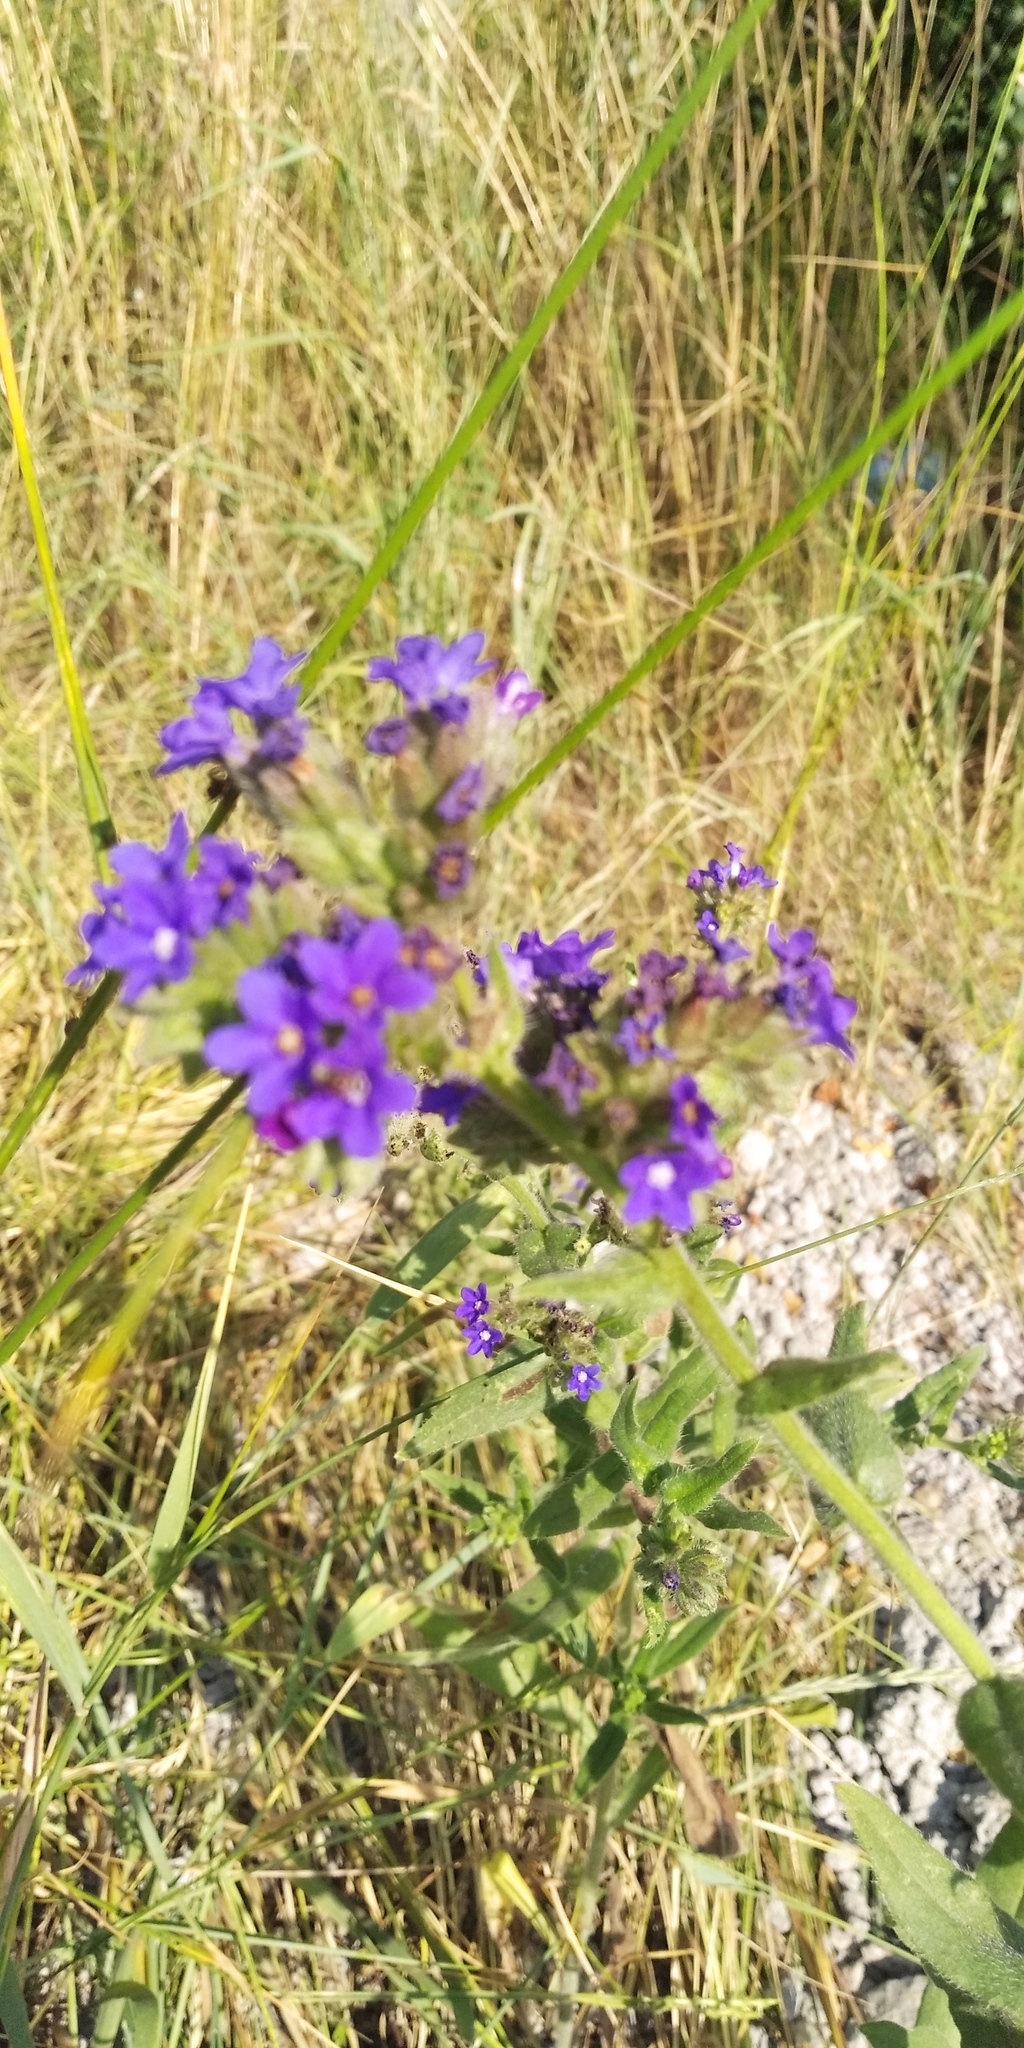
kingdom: Plantae
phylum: Tracheophyta
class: Magnoliopsida
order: Boraginales
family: Boraginaceae
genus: Anchusa
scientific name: Anchusa officinalis
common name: Alkanet
